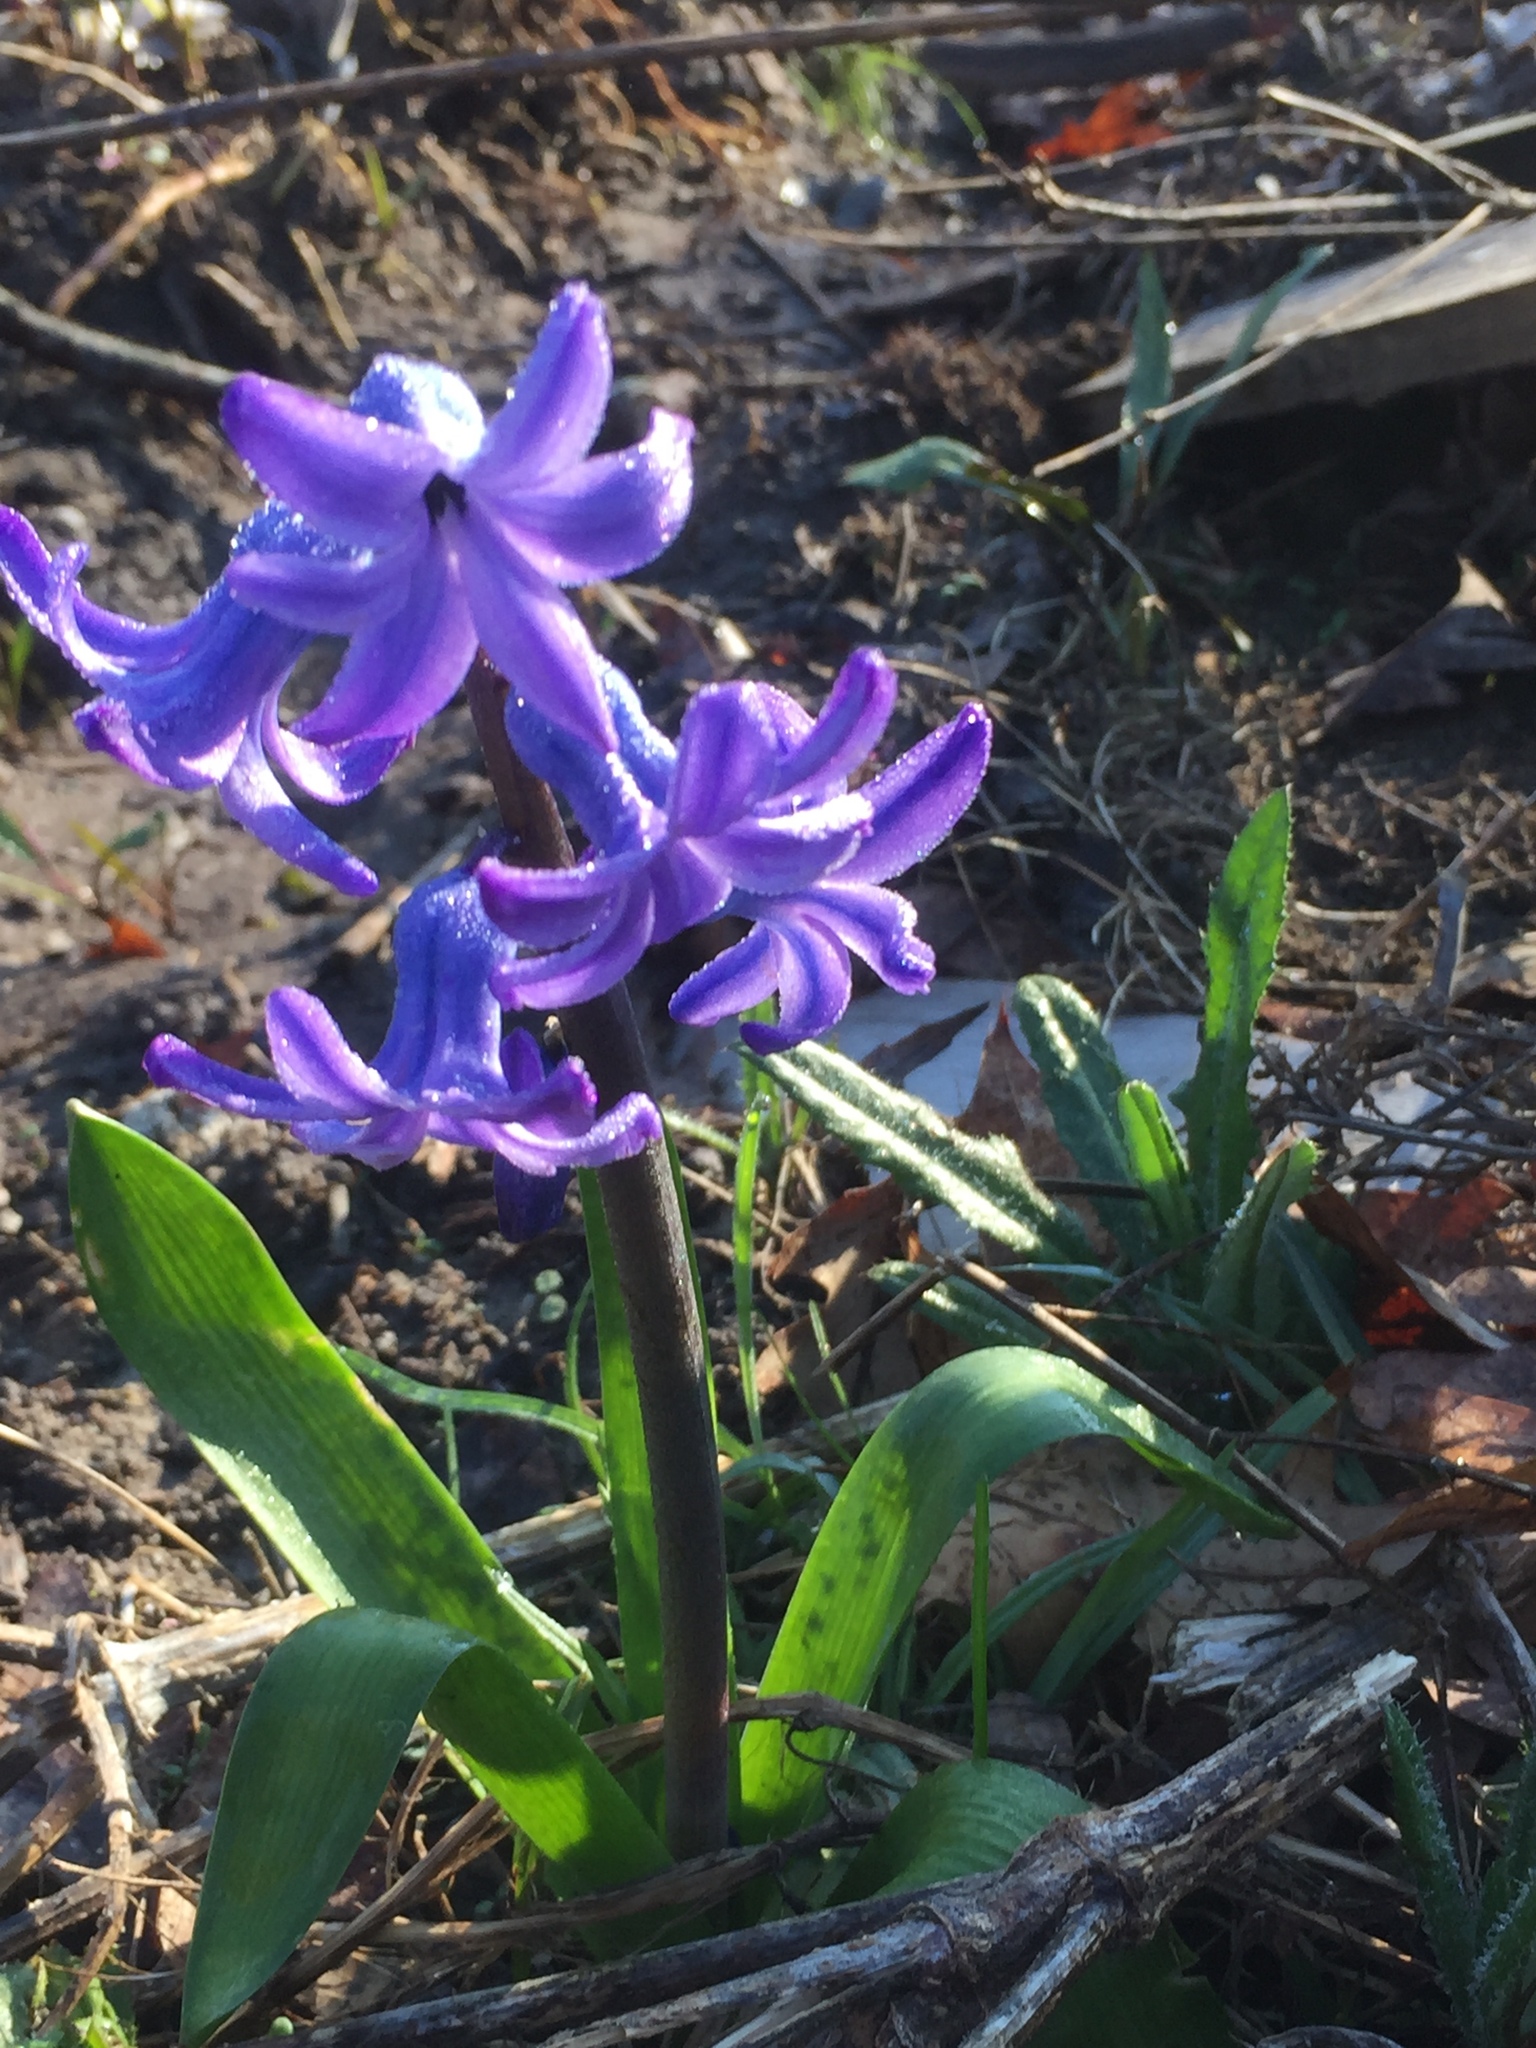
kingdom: Plantae
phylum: Tracheophyta
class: Liliopsida
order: Asparagales
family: Asparagaceae
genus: Hyacinthus
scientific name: Hyacinthus orientalis
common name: Hyacinth
